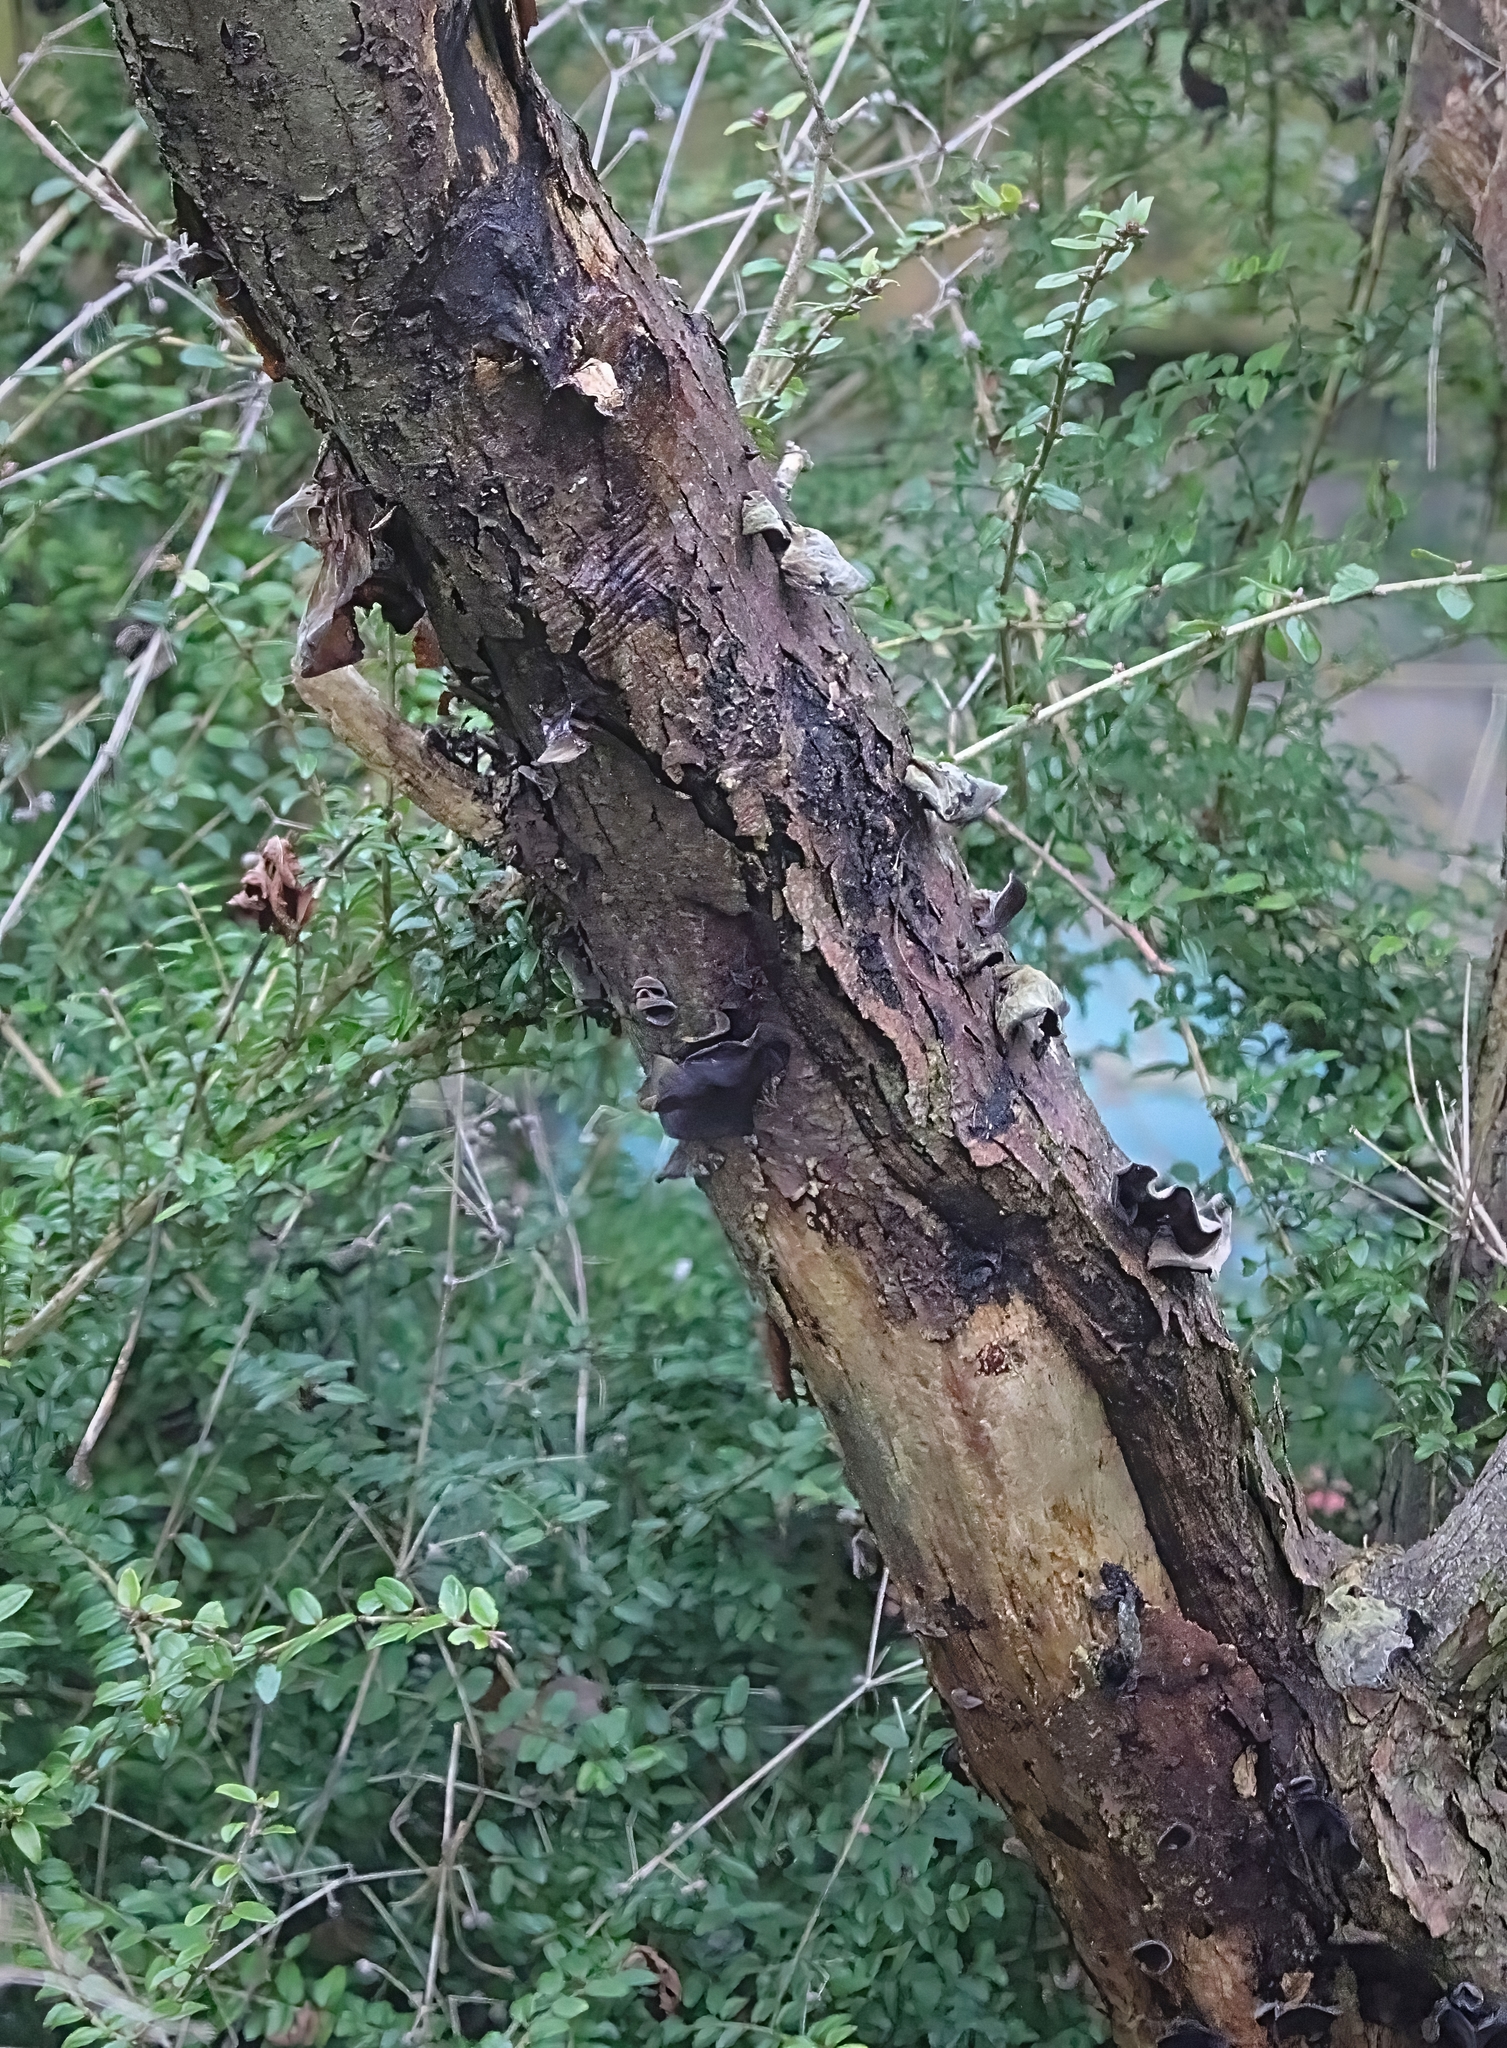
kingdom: Fungi
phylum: Basidiomycota
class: Agaricomycetes
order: Auriculariales
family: Auriculariaceae
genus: Auricularia
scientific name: Auricularia auricula-judae
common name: Jelly ear
